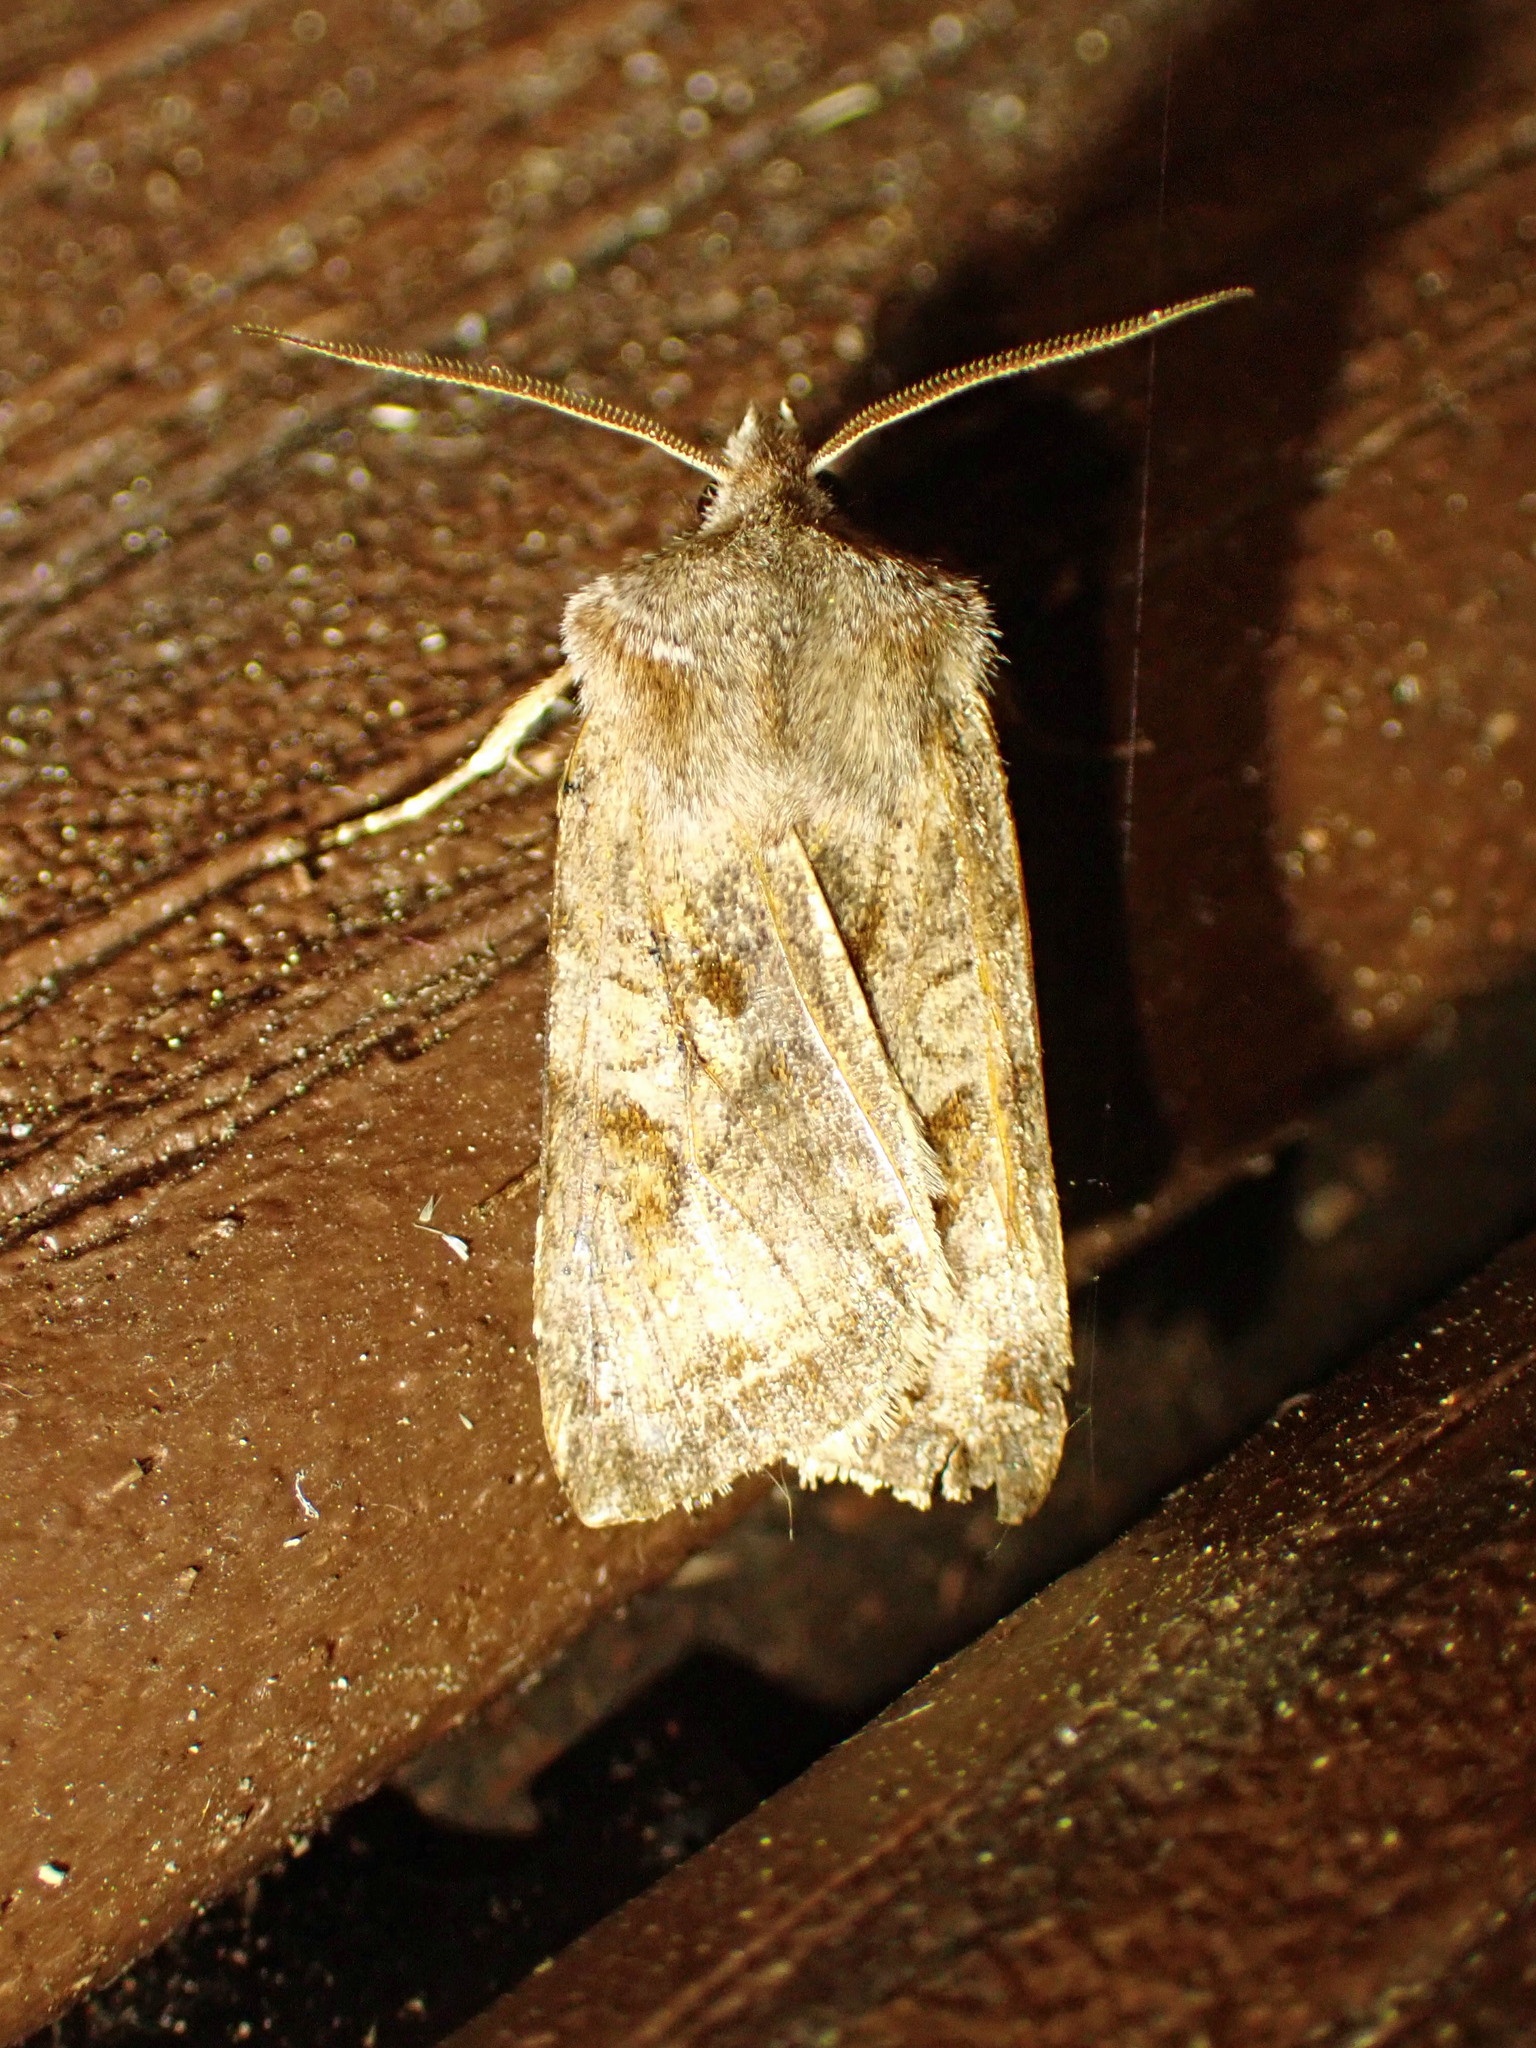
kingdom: Animalia
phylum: Arthropoda
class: Insecta
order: Lepidoptera
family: Noctuidae
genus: Cerastis
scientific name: Cerastis salicarum
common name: Willow dart
